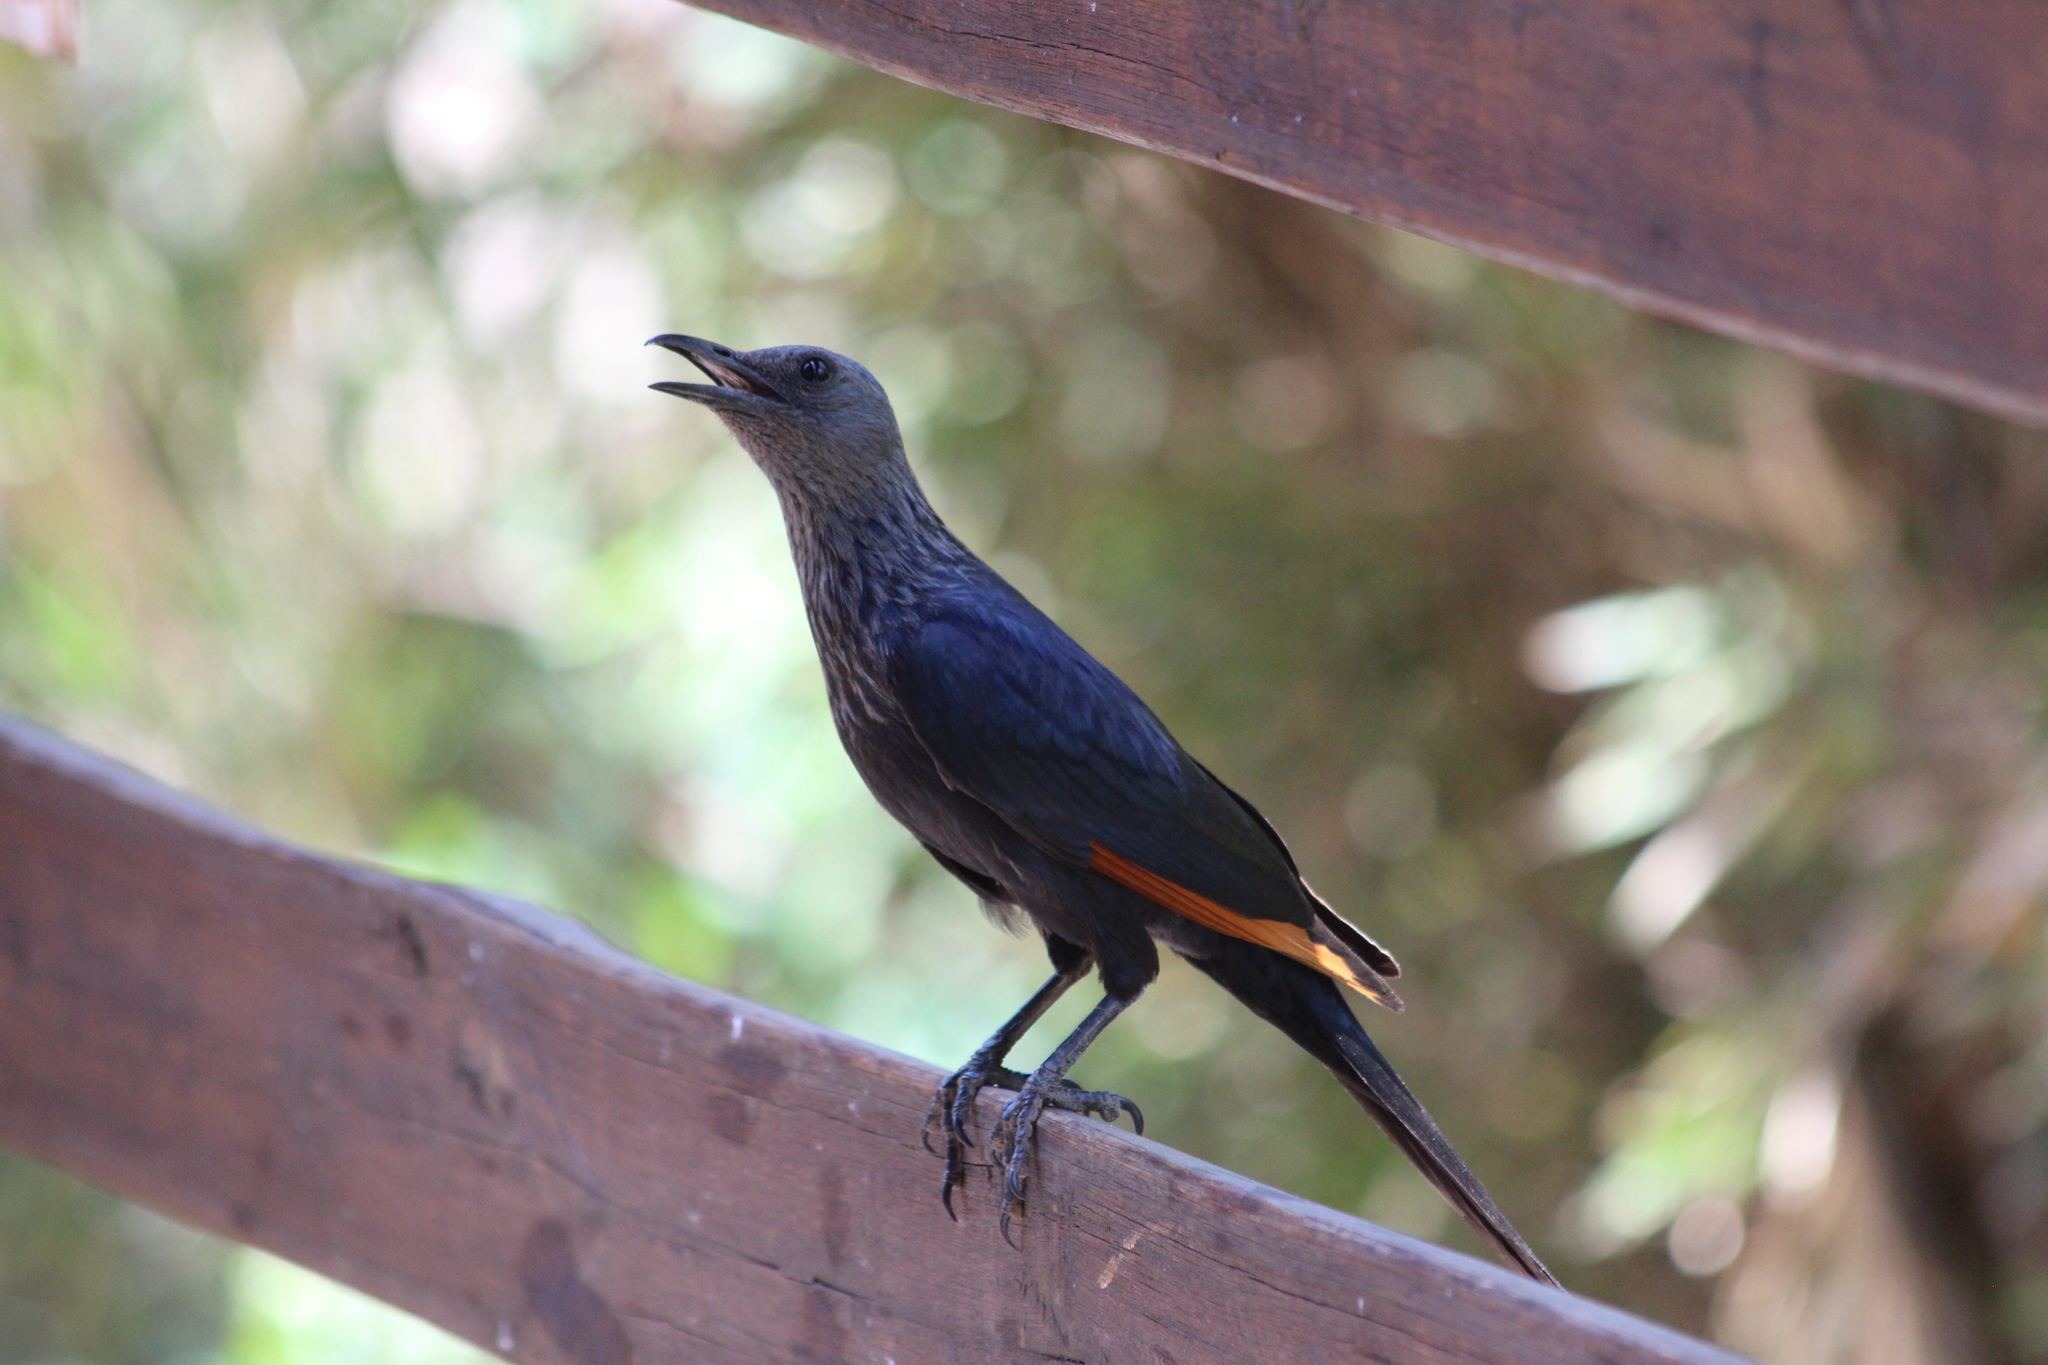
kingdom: Animalia
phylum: Chordata
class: Aves
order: Passeriformes
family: Sturnidae
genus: Onychognathus
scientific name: Onychognathus morio
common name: Red-winged starling
